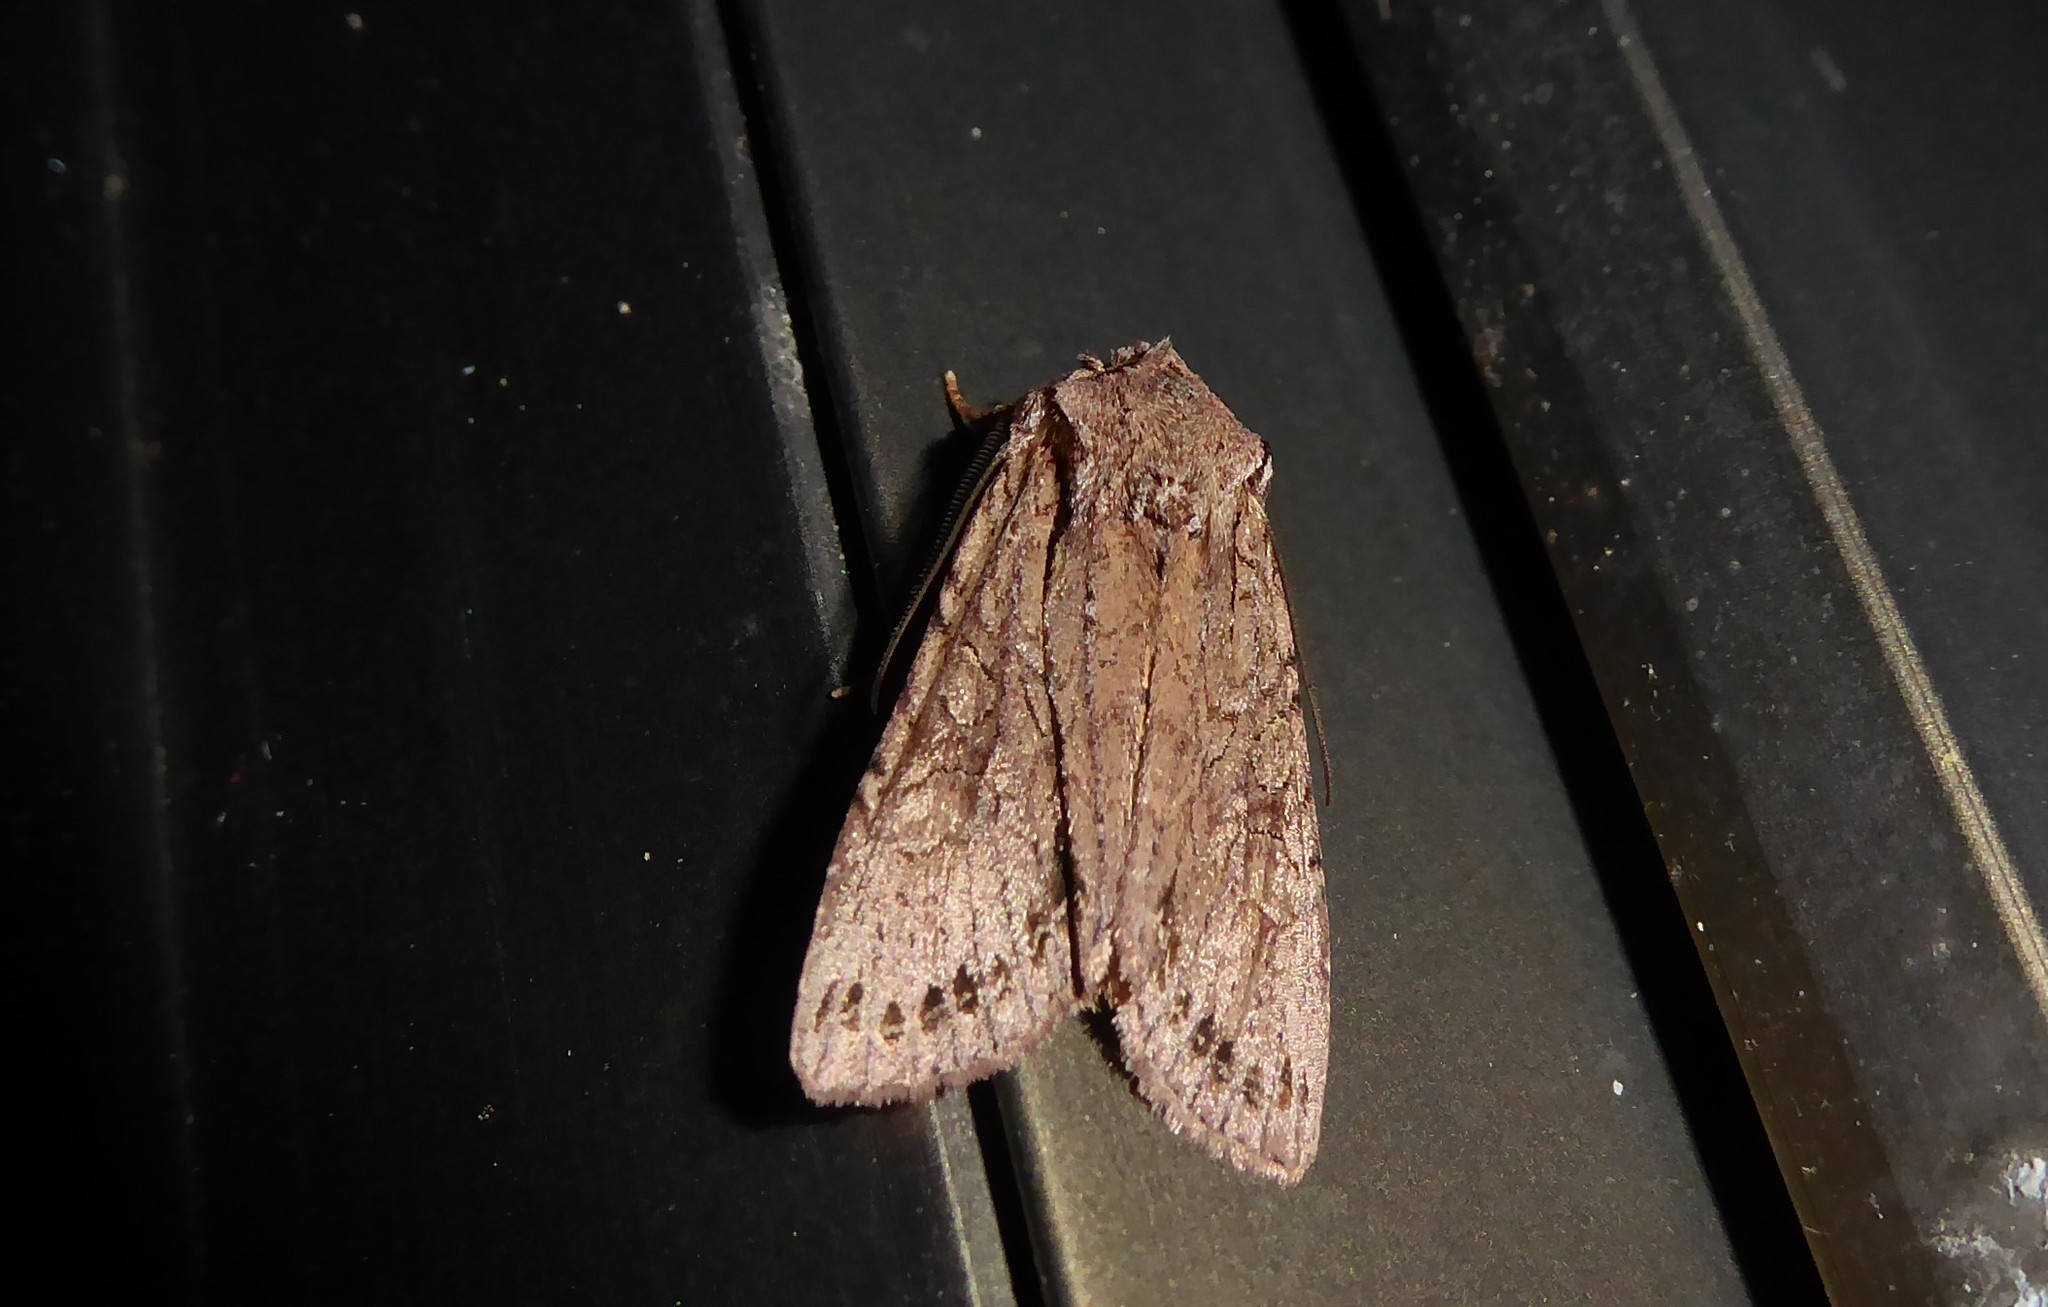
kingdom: Animalia
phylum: Arthropoda
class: Insecta
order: Lepidoptera
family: Noctuidae
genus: Ichneutica
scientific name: Ichneutica
